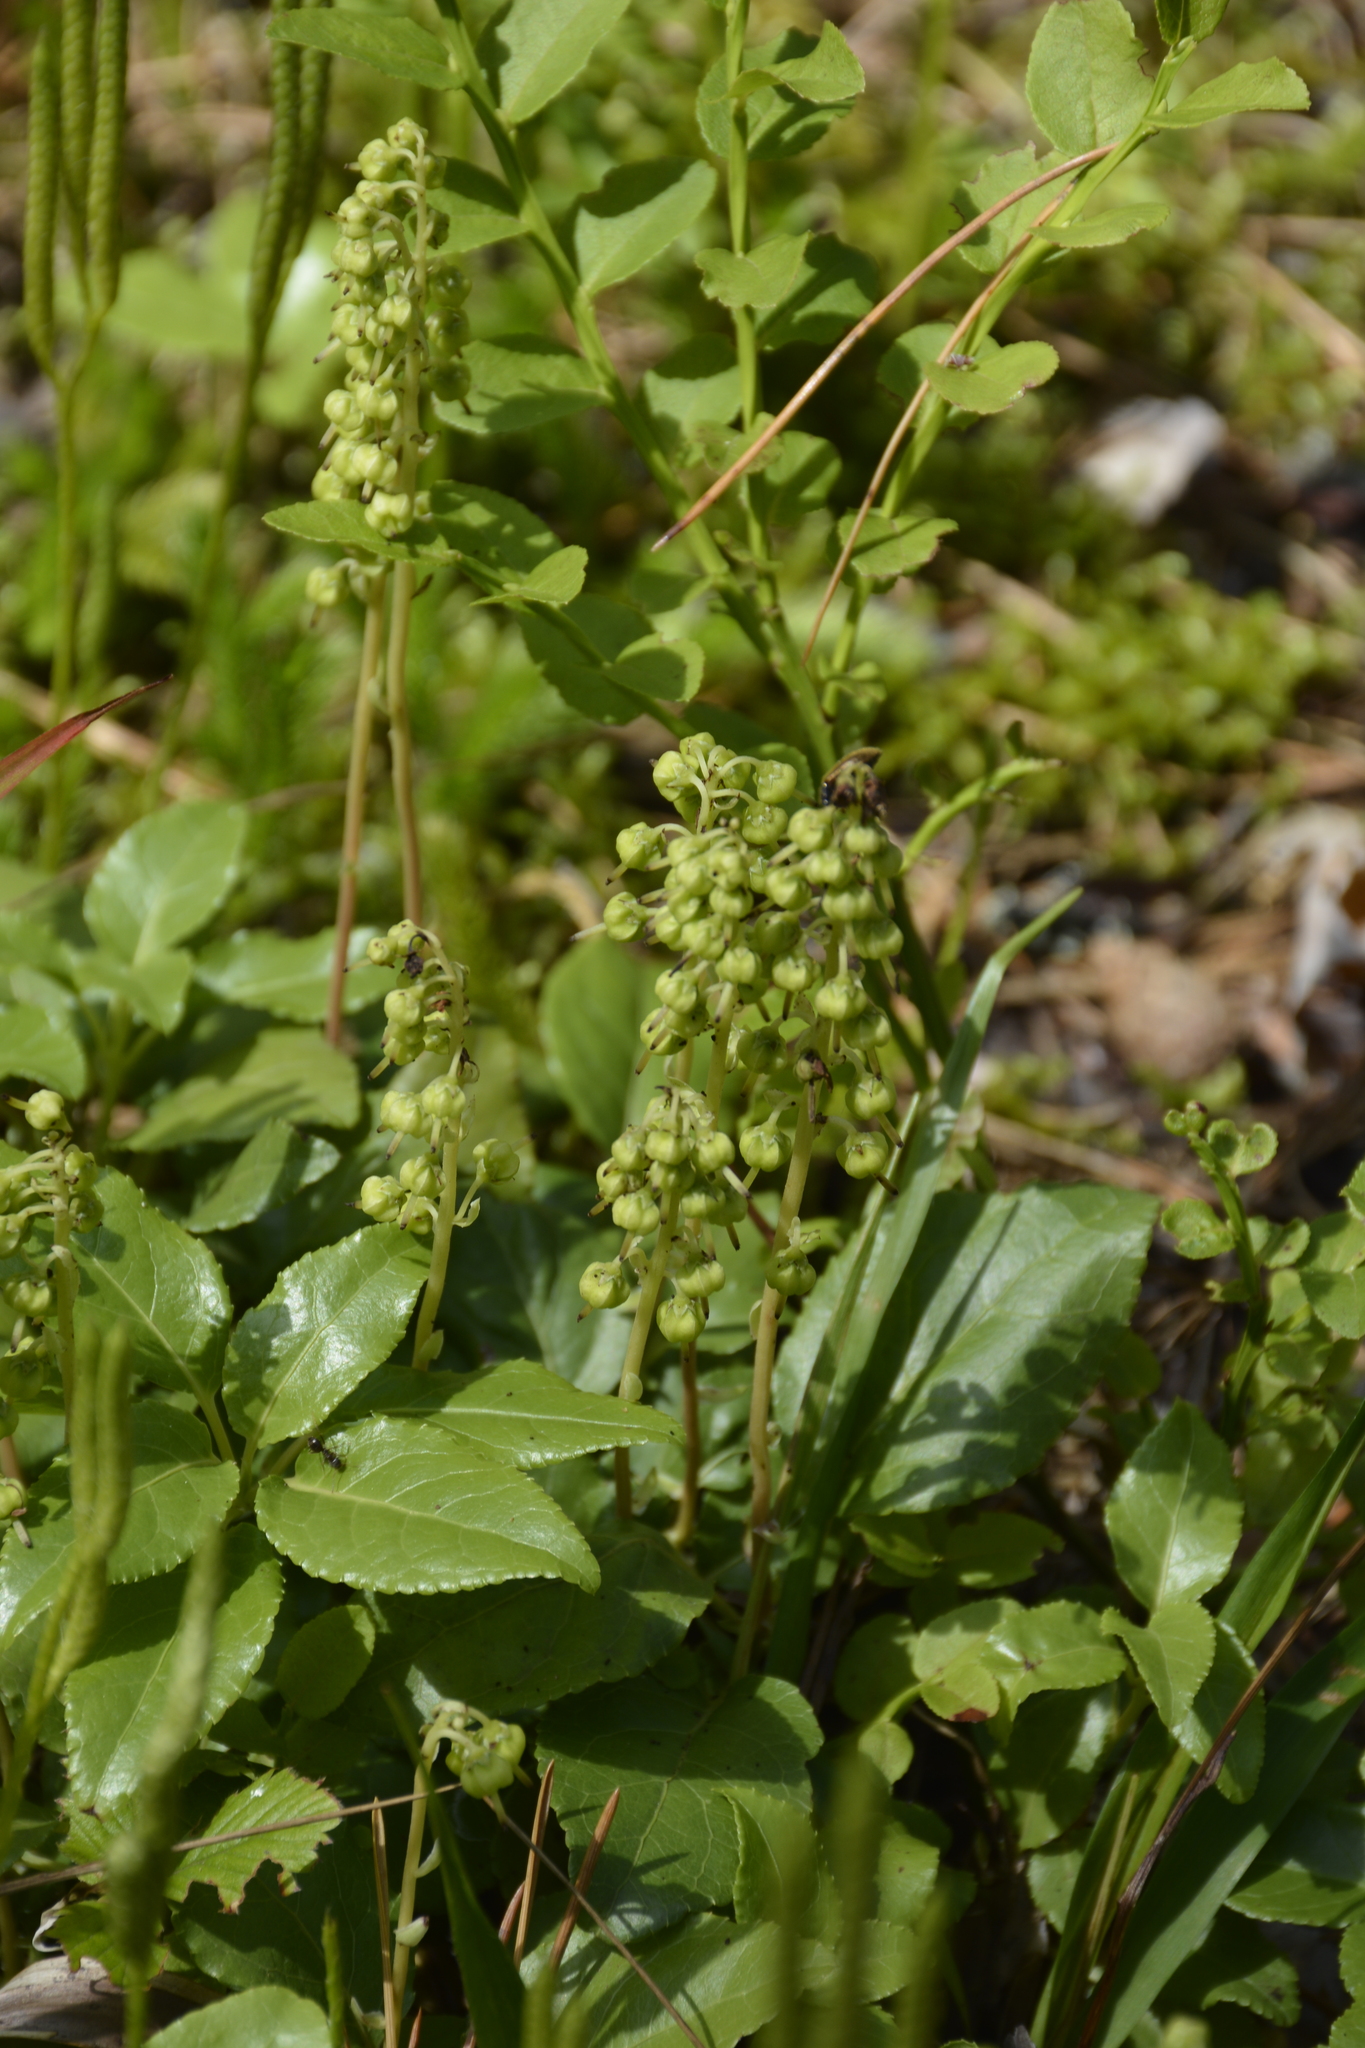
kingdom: Plantae
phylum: Tracheophyta
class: Magnoliopsida
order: Ericales
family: Ericaceae
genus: Orthilia
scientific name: Orthilia secunda
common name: One-sided orthilia
